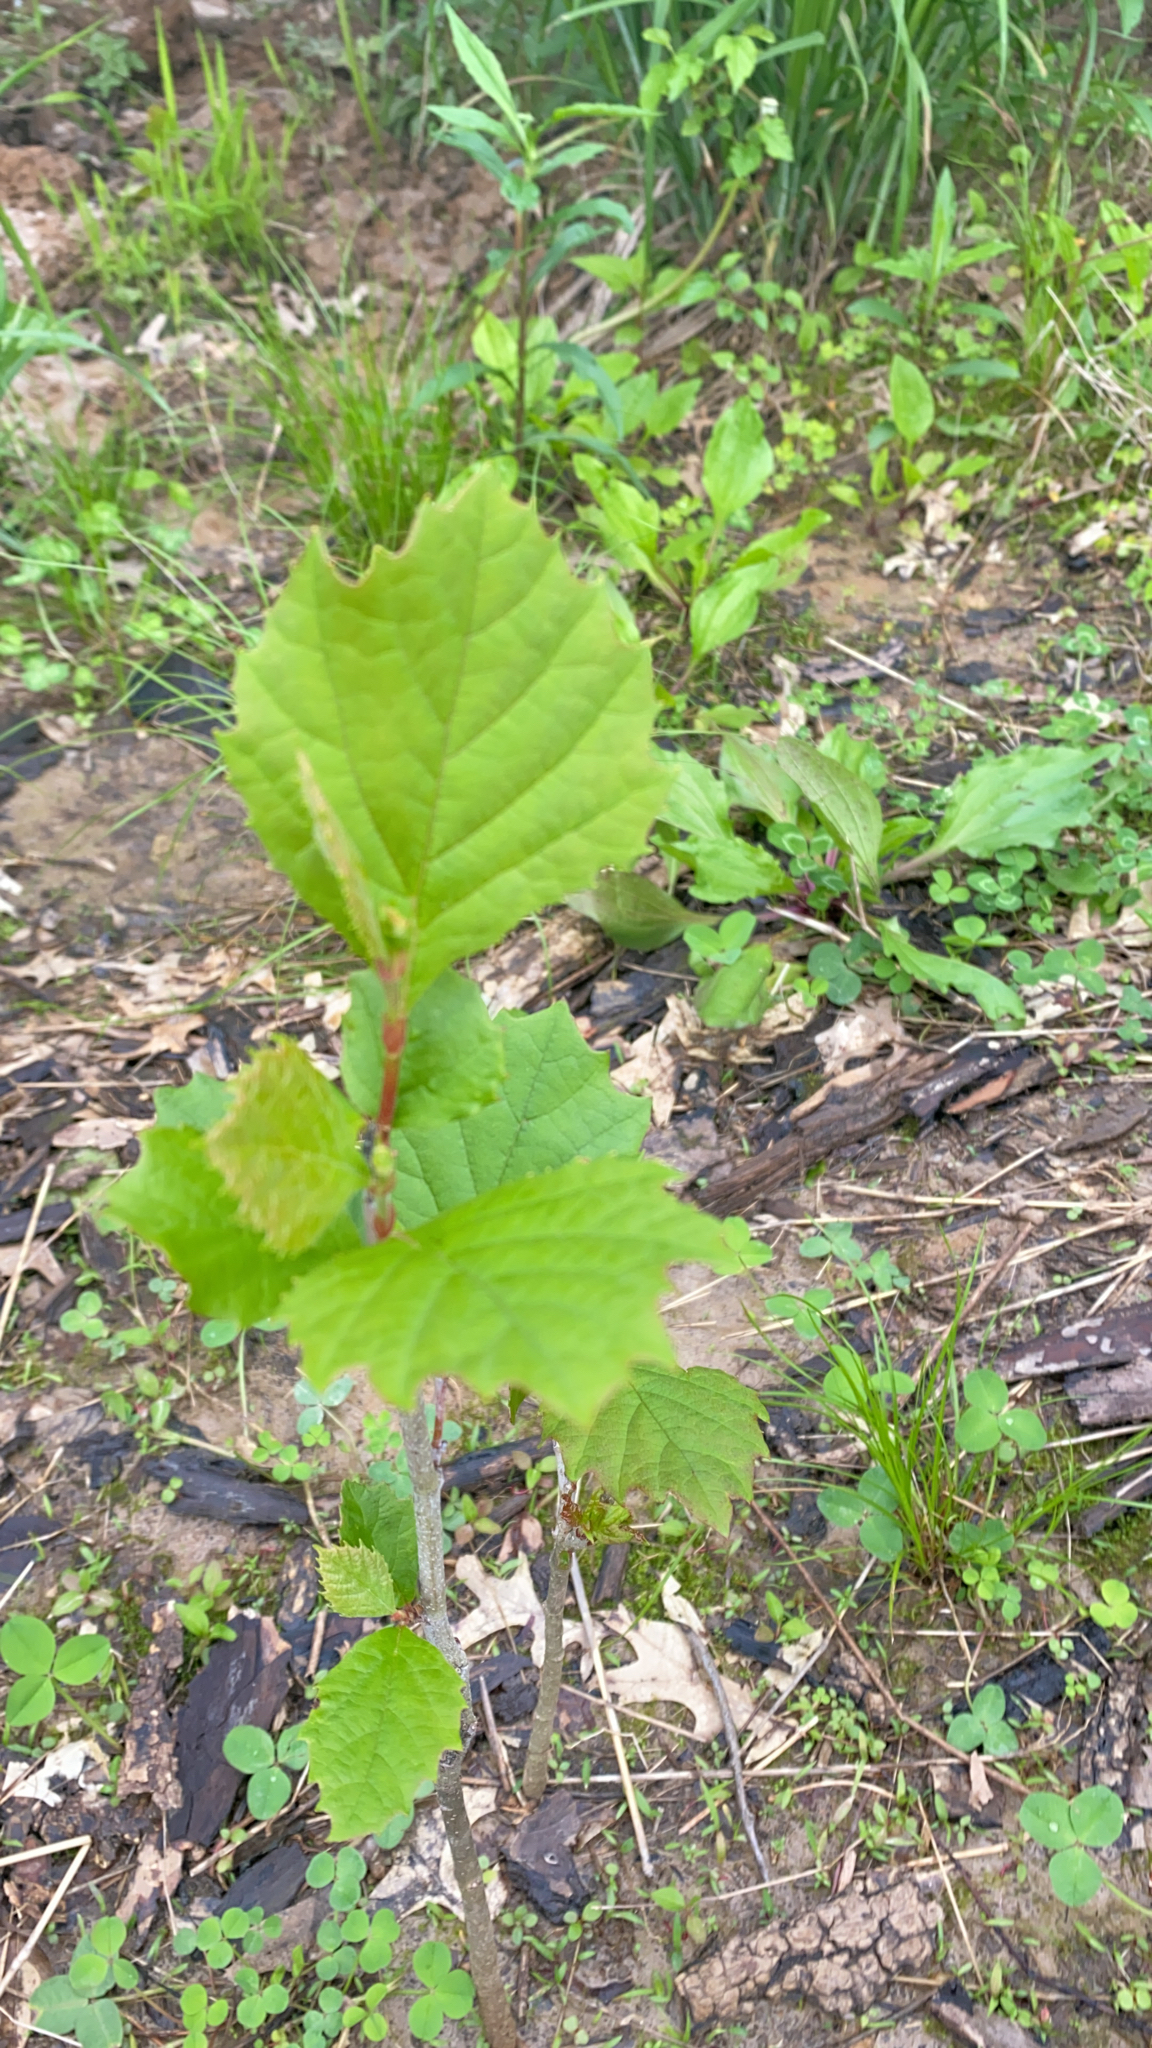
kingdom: Plantae
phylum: Tracheophyta
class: Magnoliopsida
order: Proteales
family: Platanaceae
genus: Platanus
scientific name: Platanus occidentalis
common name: American sycamore
